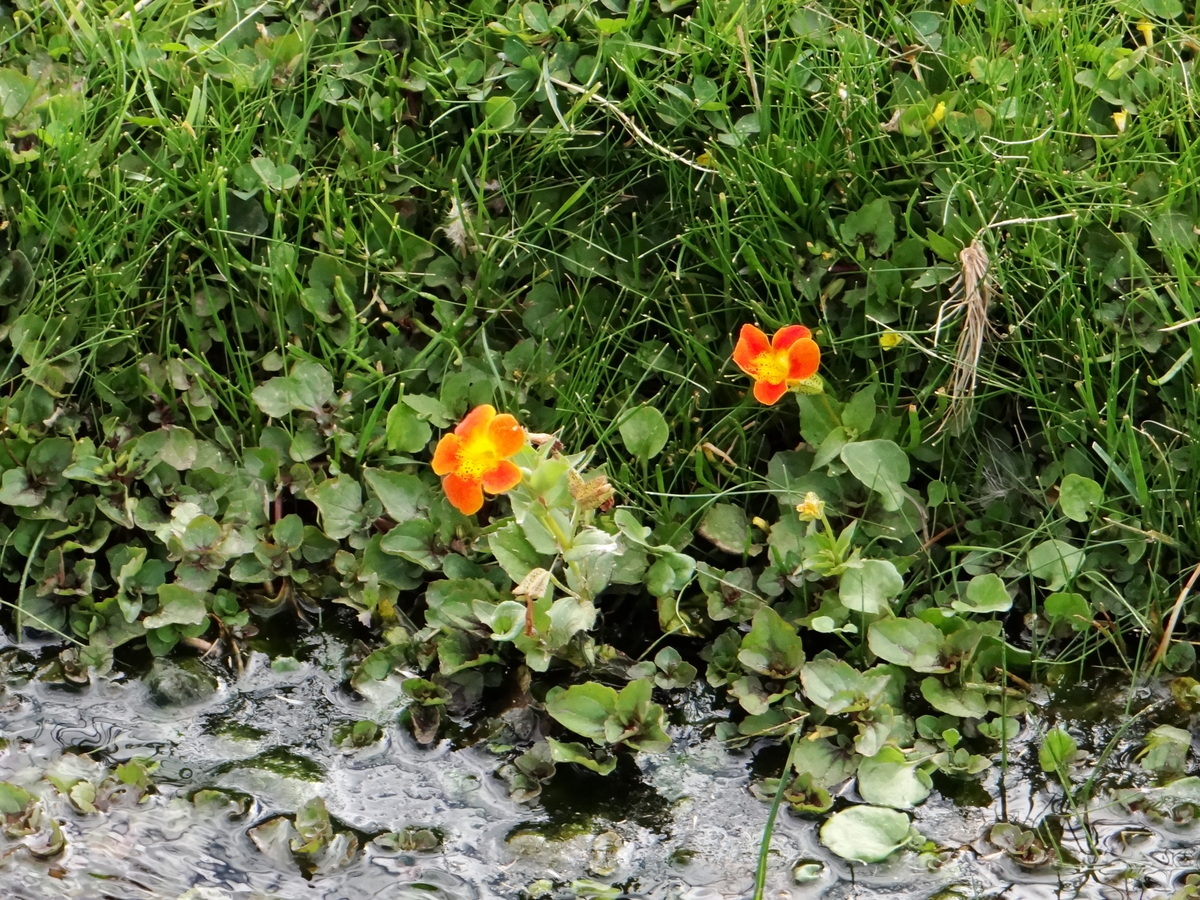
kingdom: Plantae
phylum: Tracheophyta
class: Magnoliopsida
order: Lamiales
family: Phrymaceae
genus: Erythranthe
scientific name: Erythranthe cuprea
